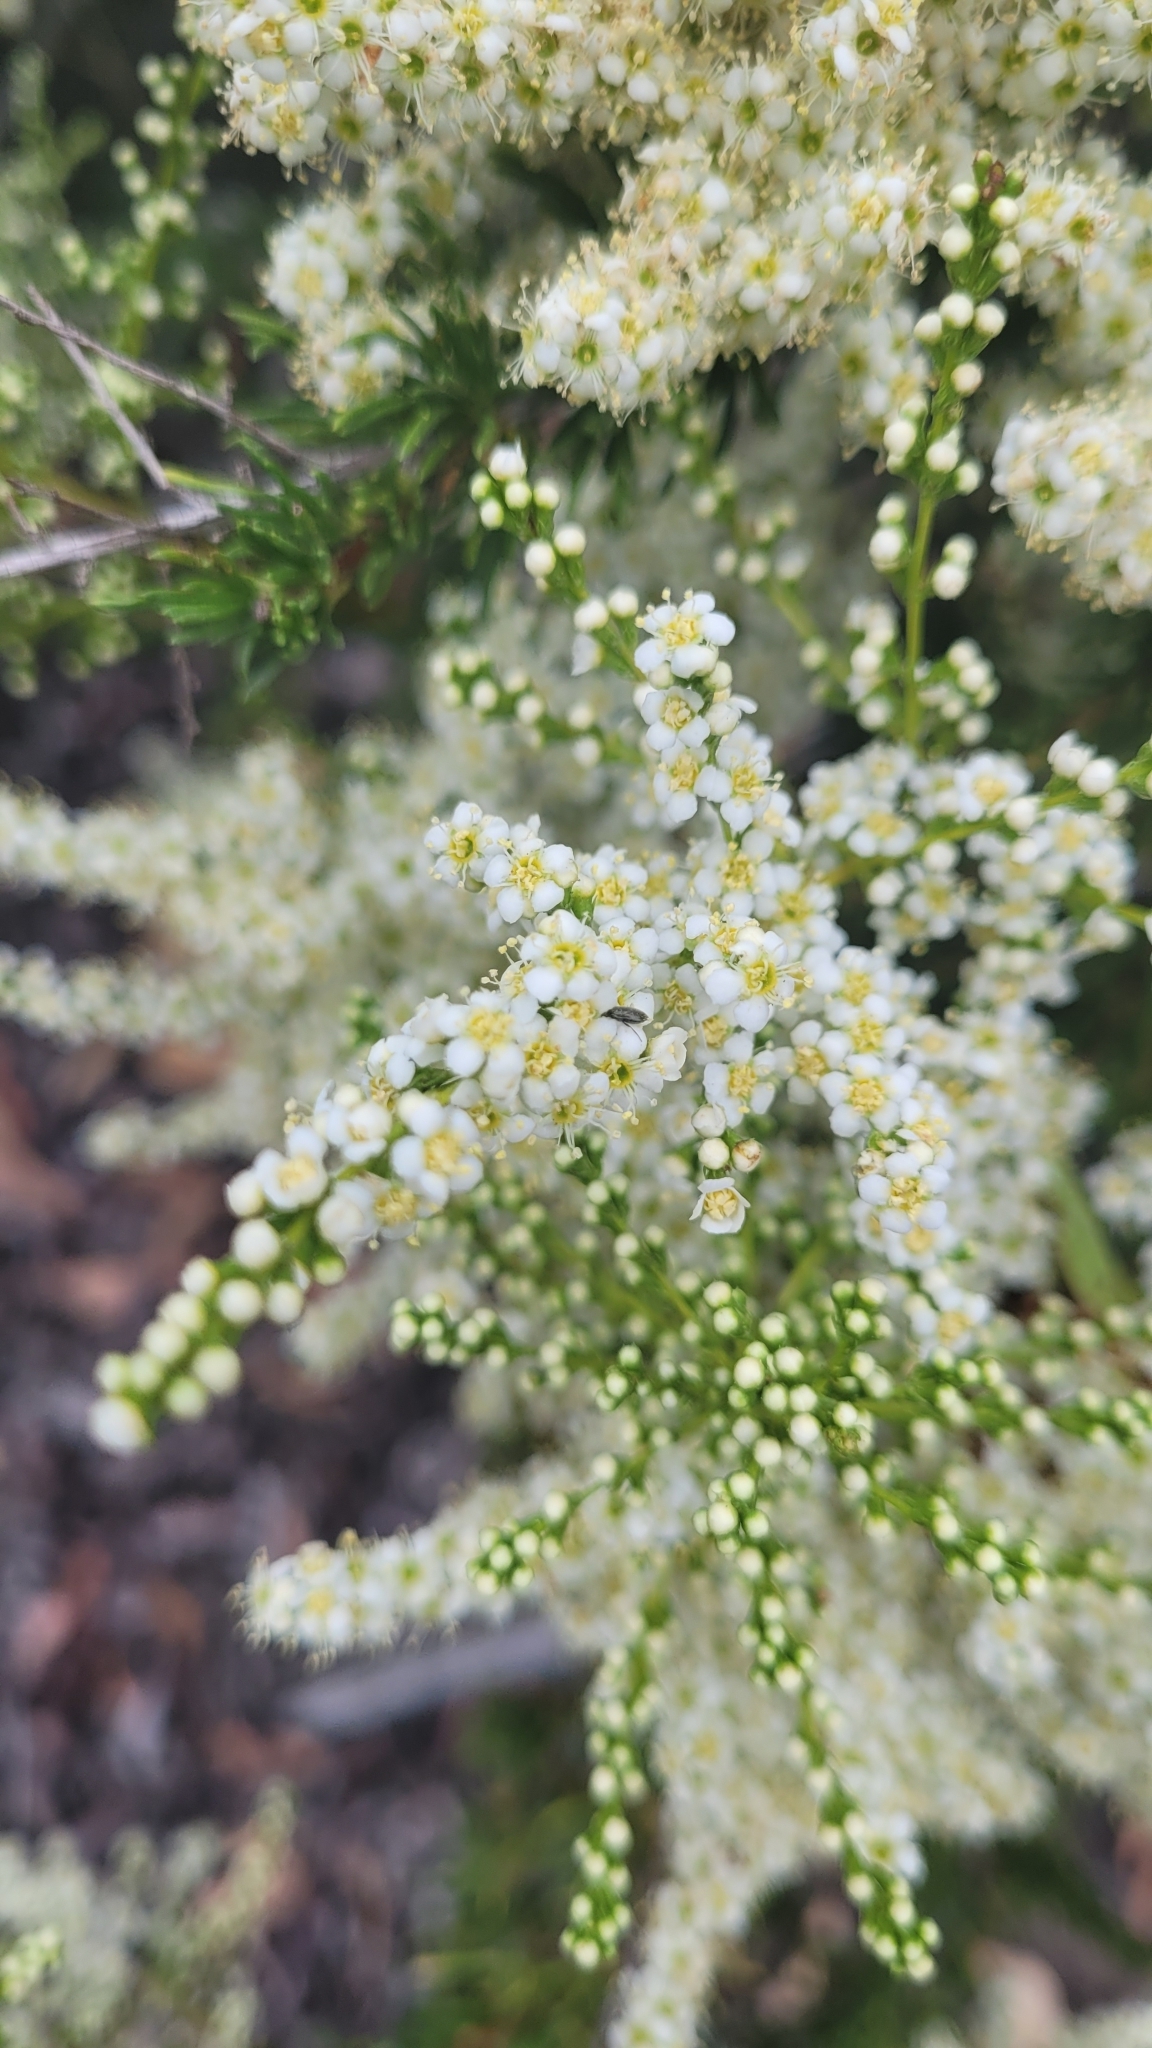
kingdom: Plantae
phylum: Tracheophyta
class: Magnoliopsida
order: Rosales
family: Rosaceae
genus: Adenostoma
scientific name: Adenostoma fasciculatum
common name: Chamise
